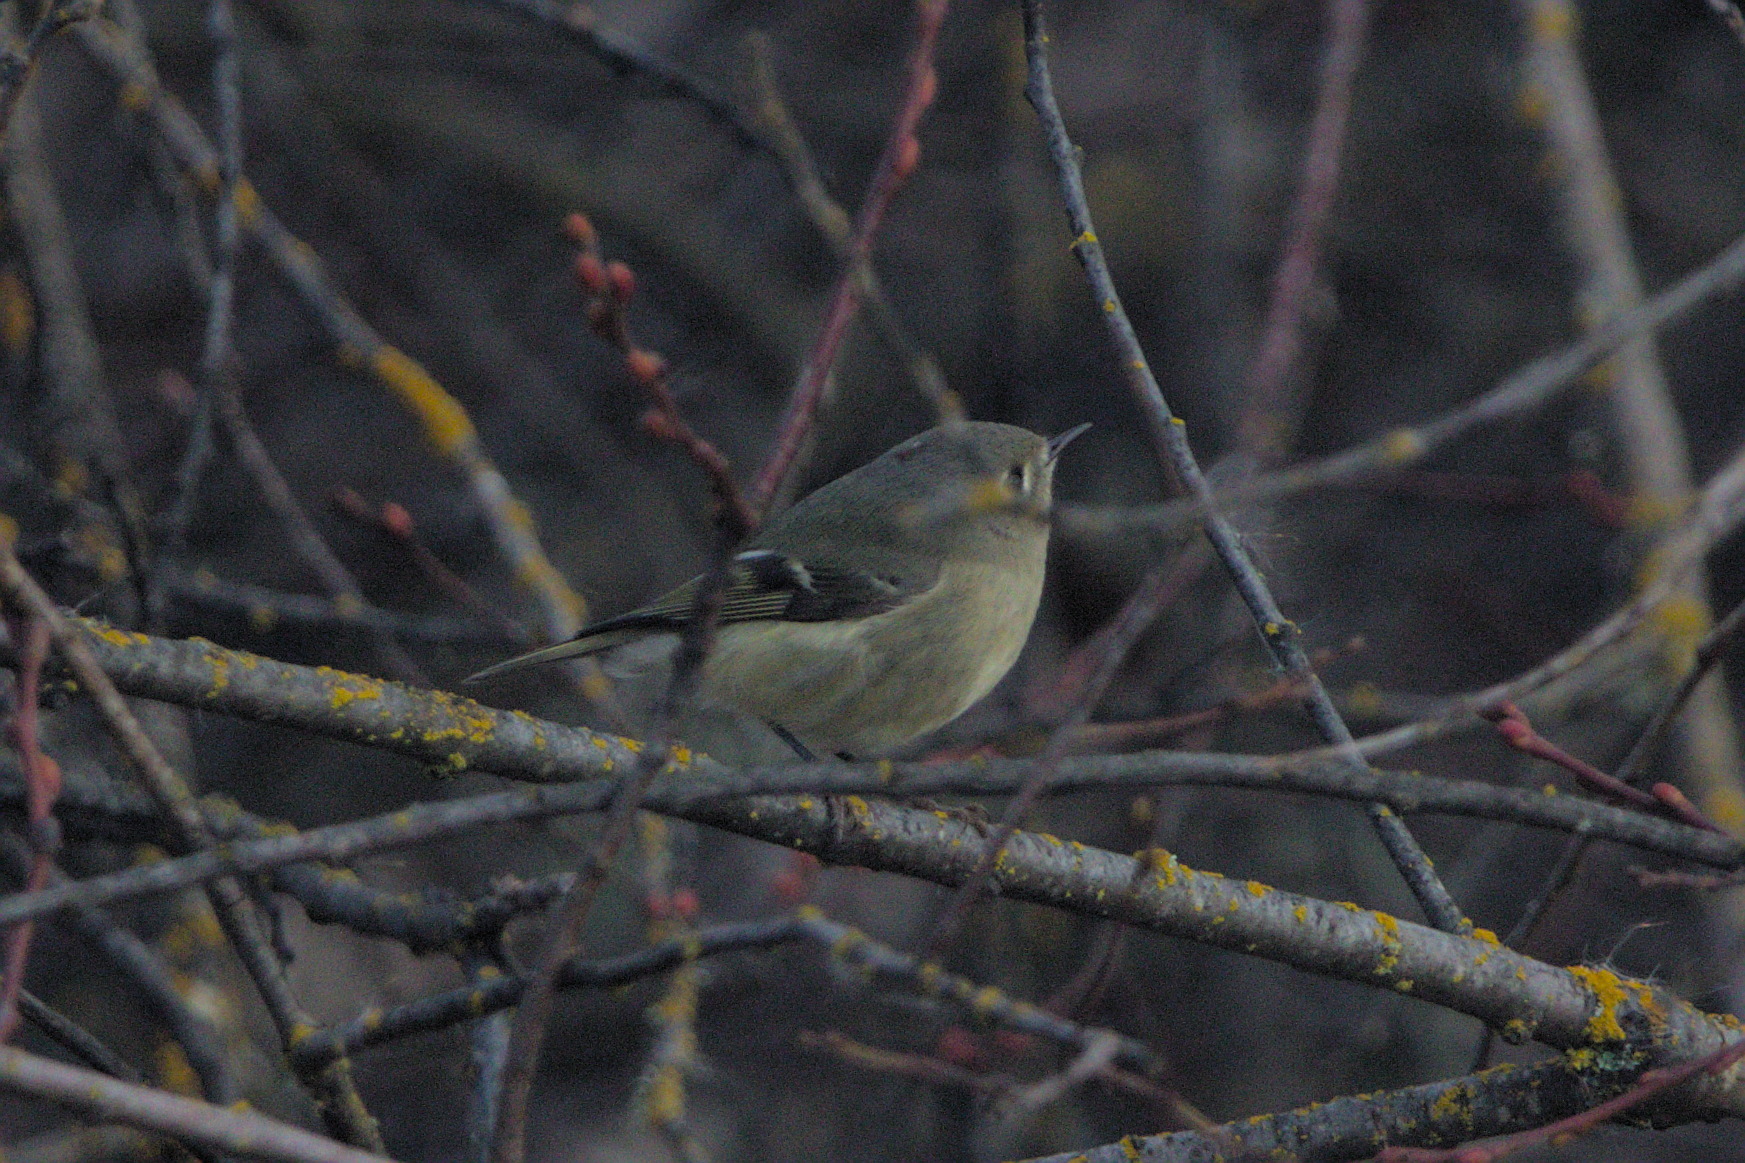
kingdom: Animalia
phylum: Chordata
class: Aves
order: Passeriformes
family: Regulidae
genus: Regulus
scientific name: Regulus calendula
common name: Ruby-crowned kinglet
